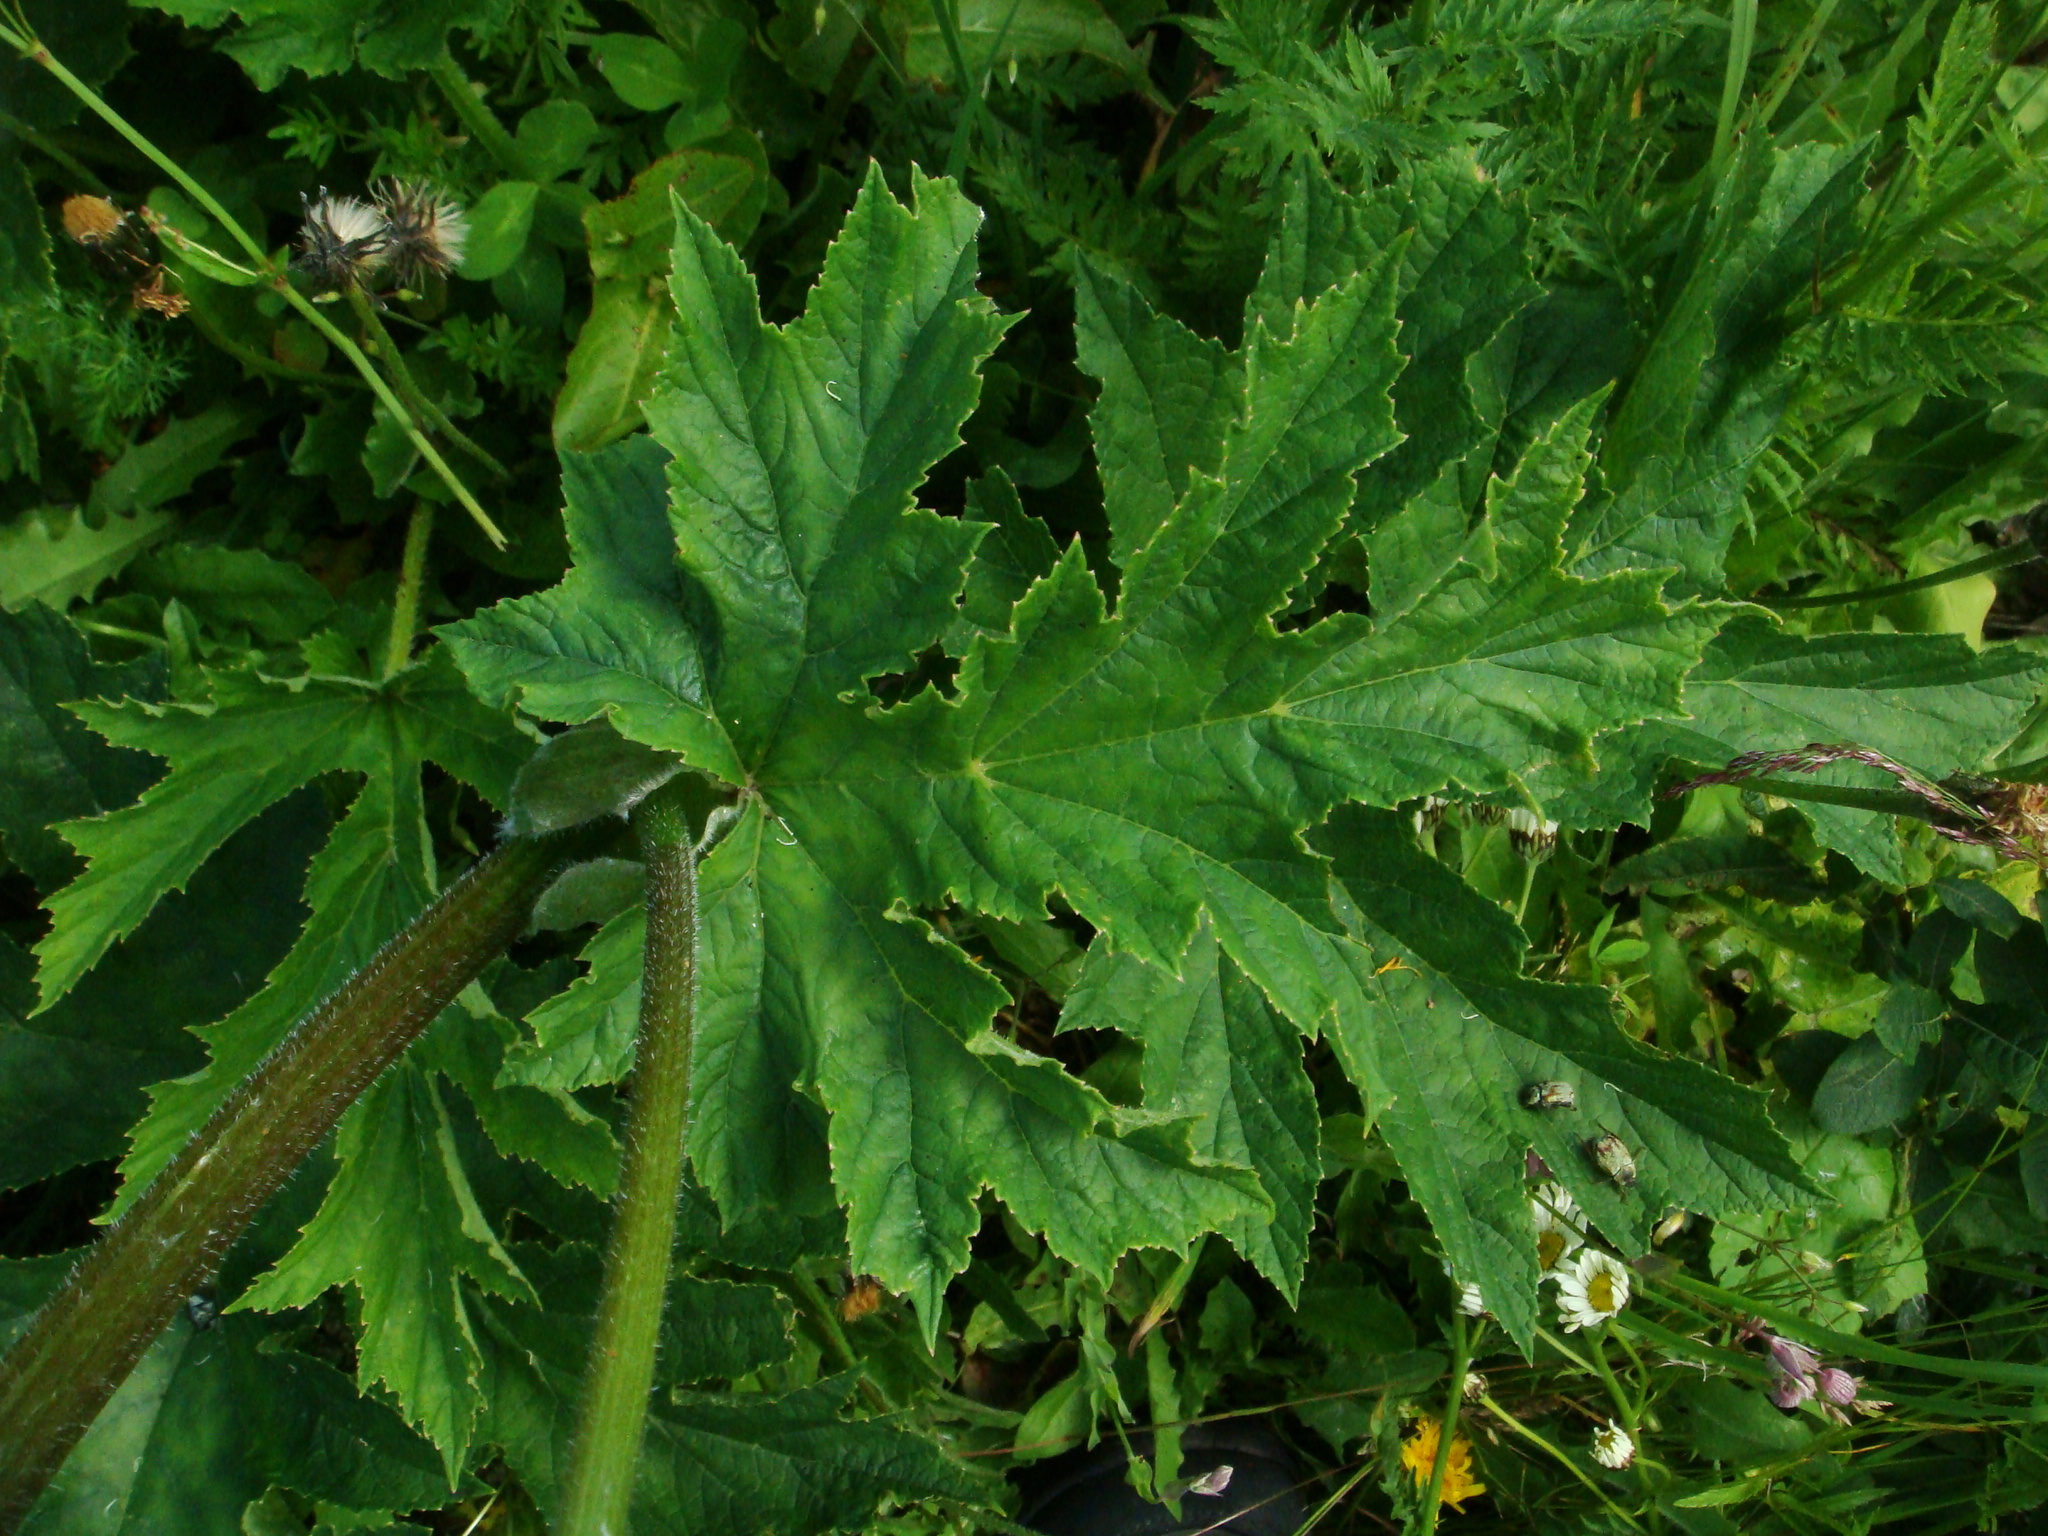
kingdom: Plantae
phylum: Tracheophyta
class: Magnoliopsida
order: Apiales
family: Apiaceae
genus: Heracleum
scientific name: Heracleum sphondylium
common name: Hogweed
